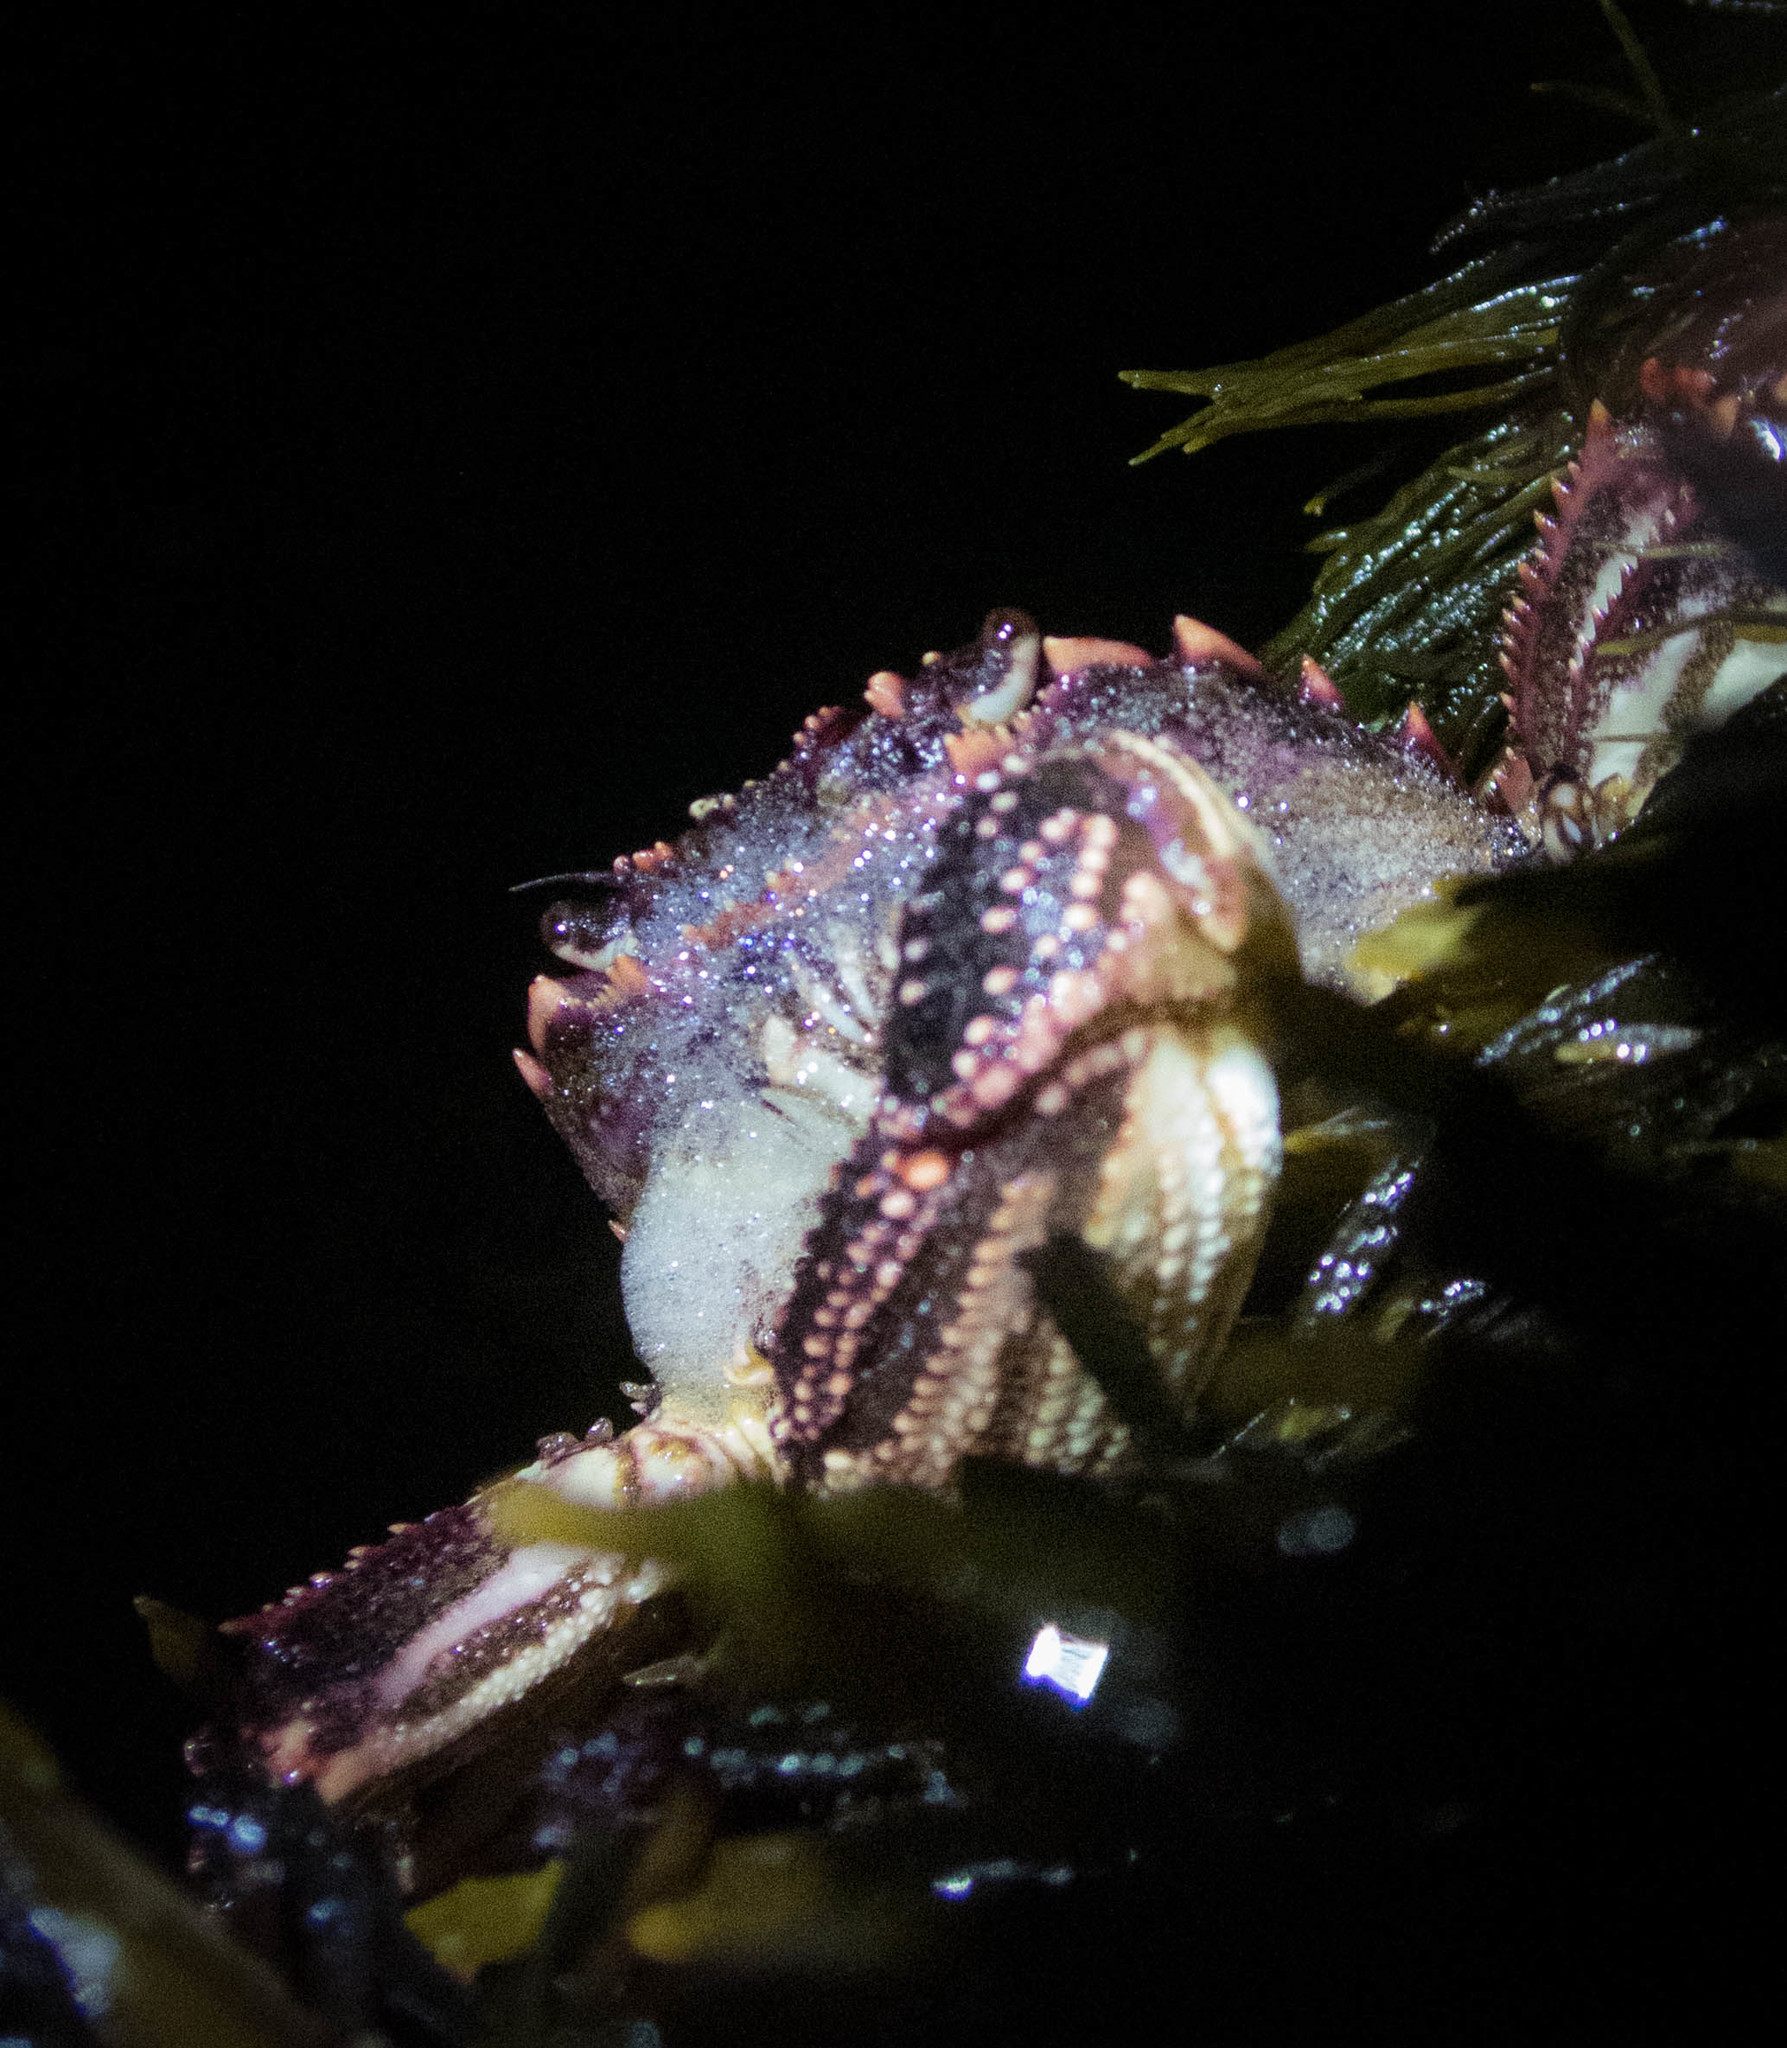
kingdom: Animalia
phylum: Arthropoda
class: Malacostraca
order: Decapoda
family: Plagusiidae
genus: Guinusia
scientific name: Guinusia chabrus
